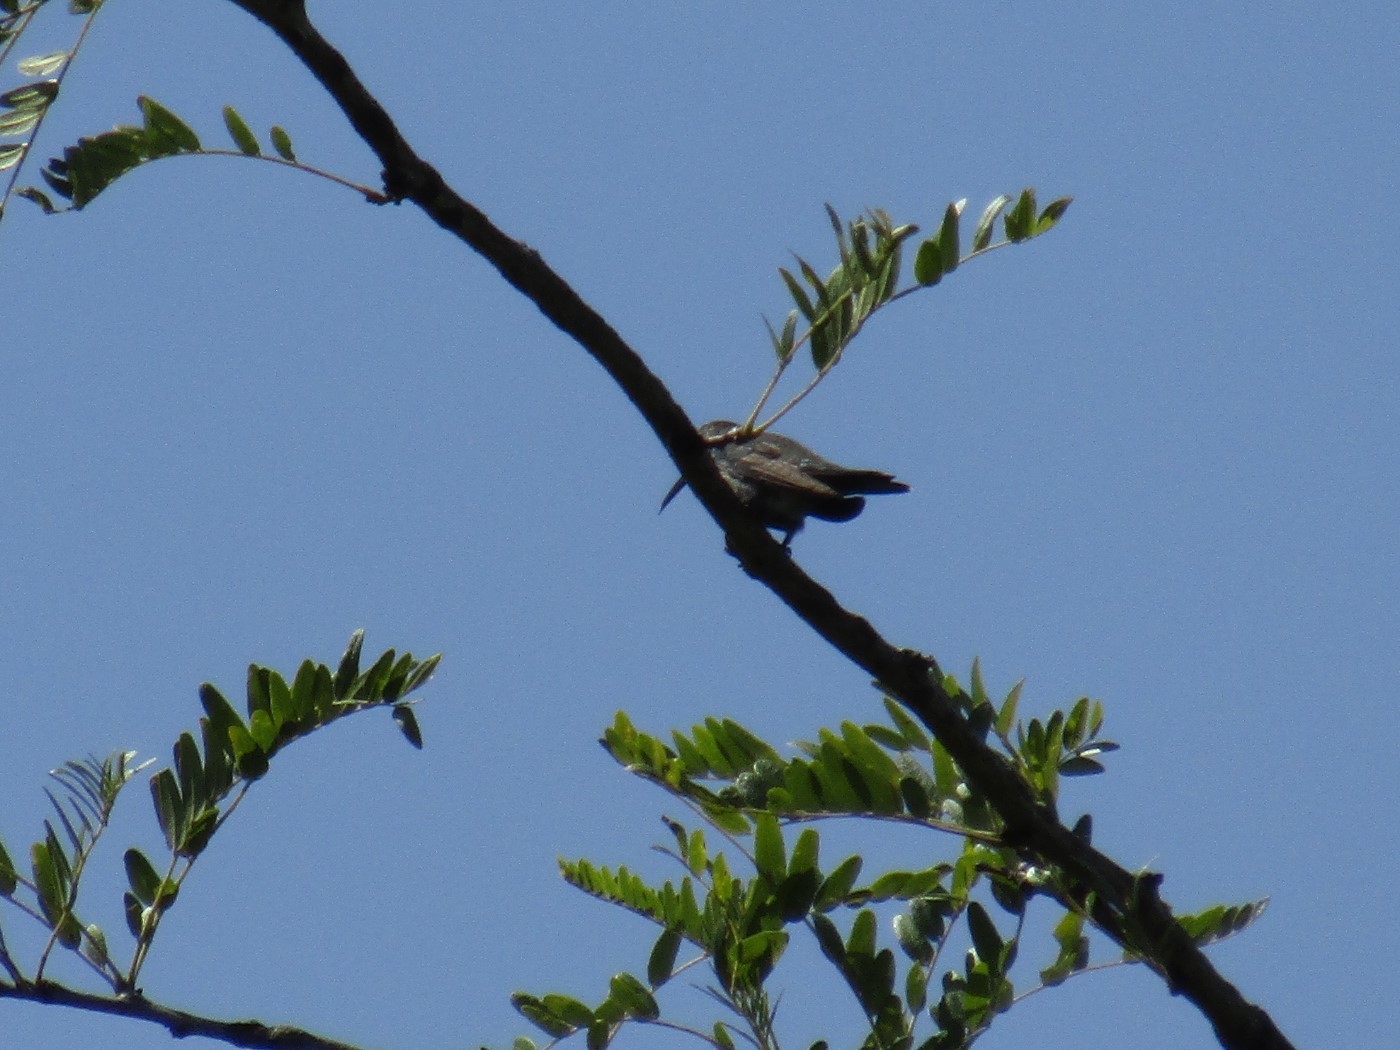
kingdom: Animalia
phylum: Chordata
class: Aves
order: Apodiformes
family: Trochilidae
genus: Chlorostilbon
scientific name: Chlorostilbon lucidus
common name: Glittering-bellied emerald
